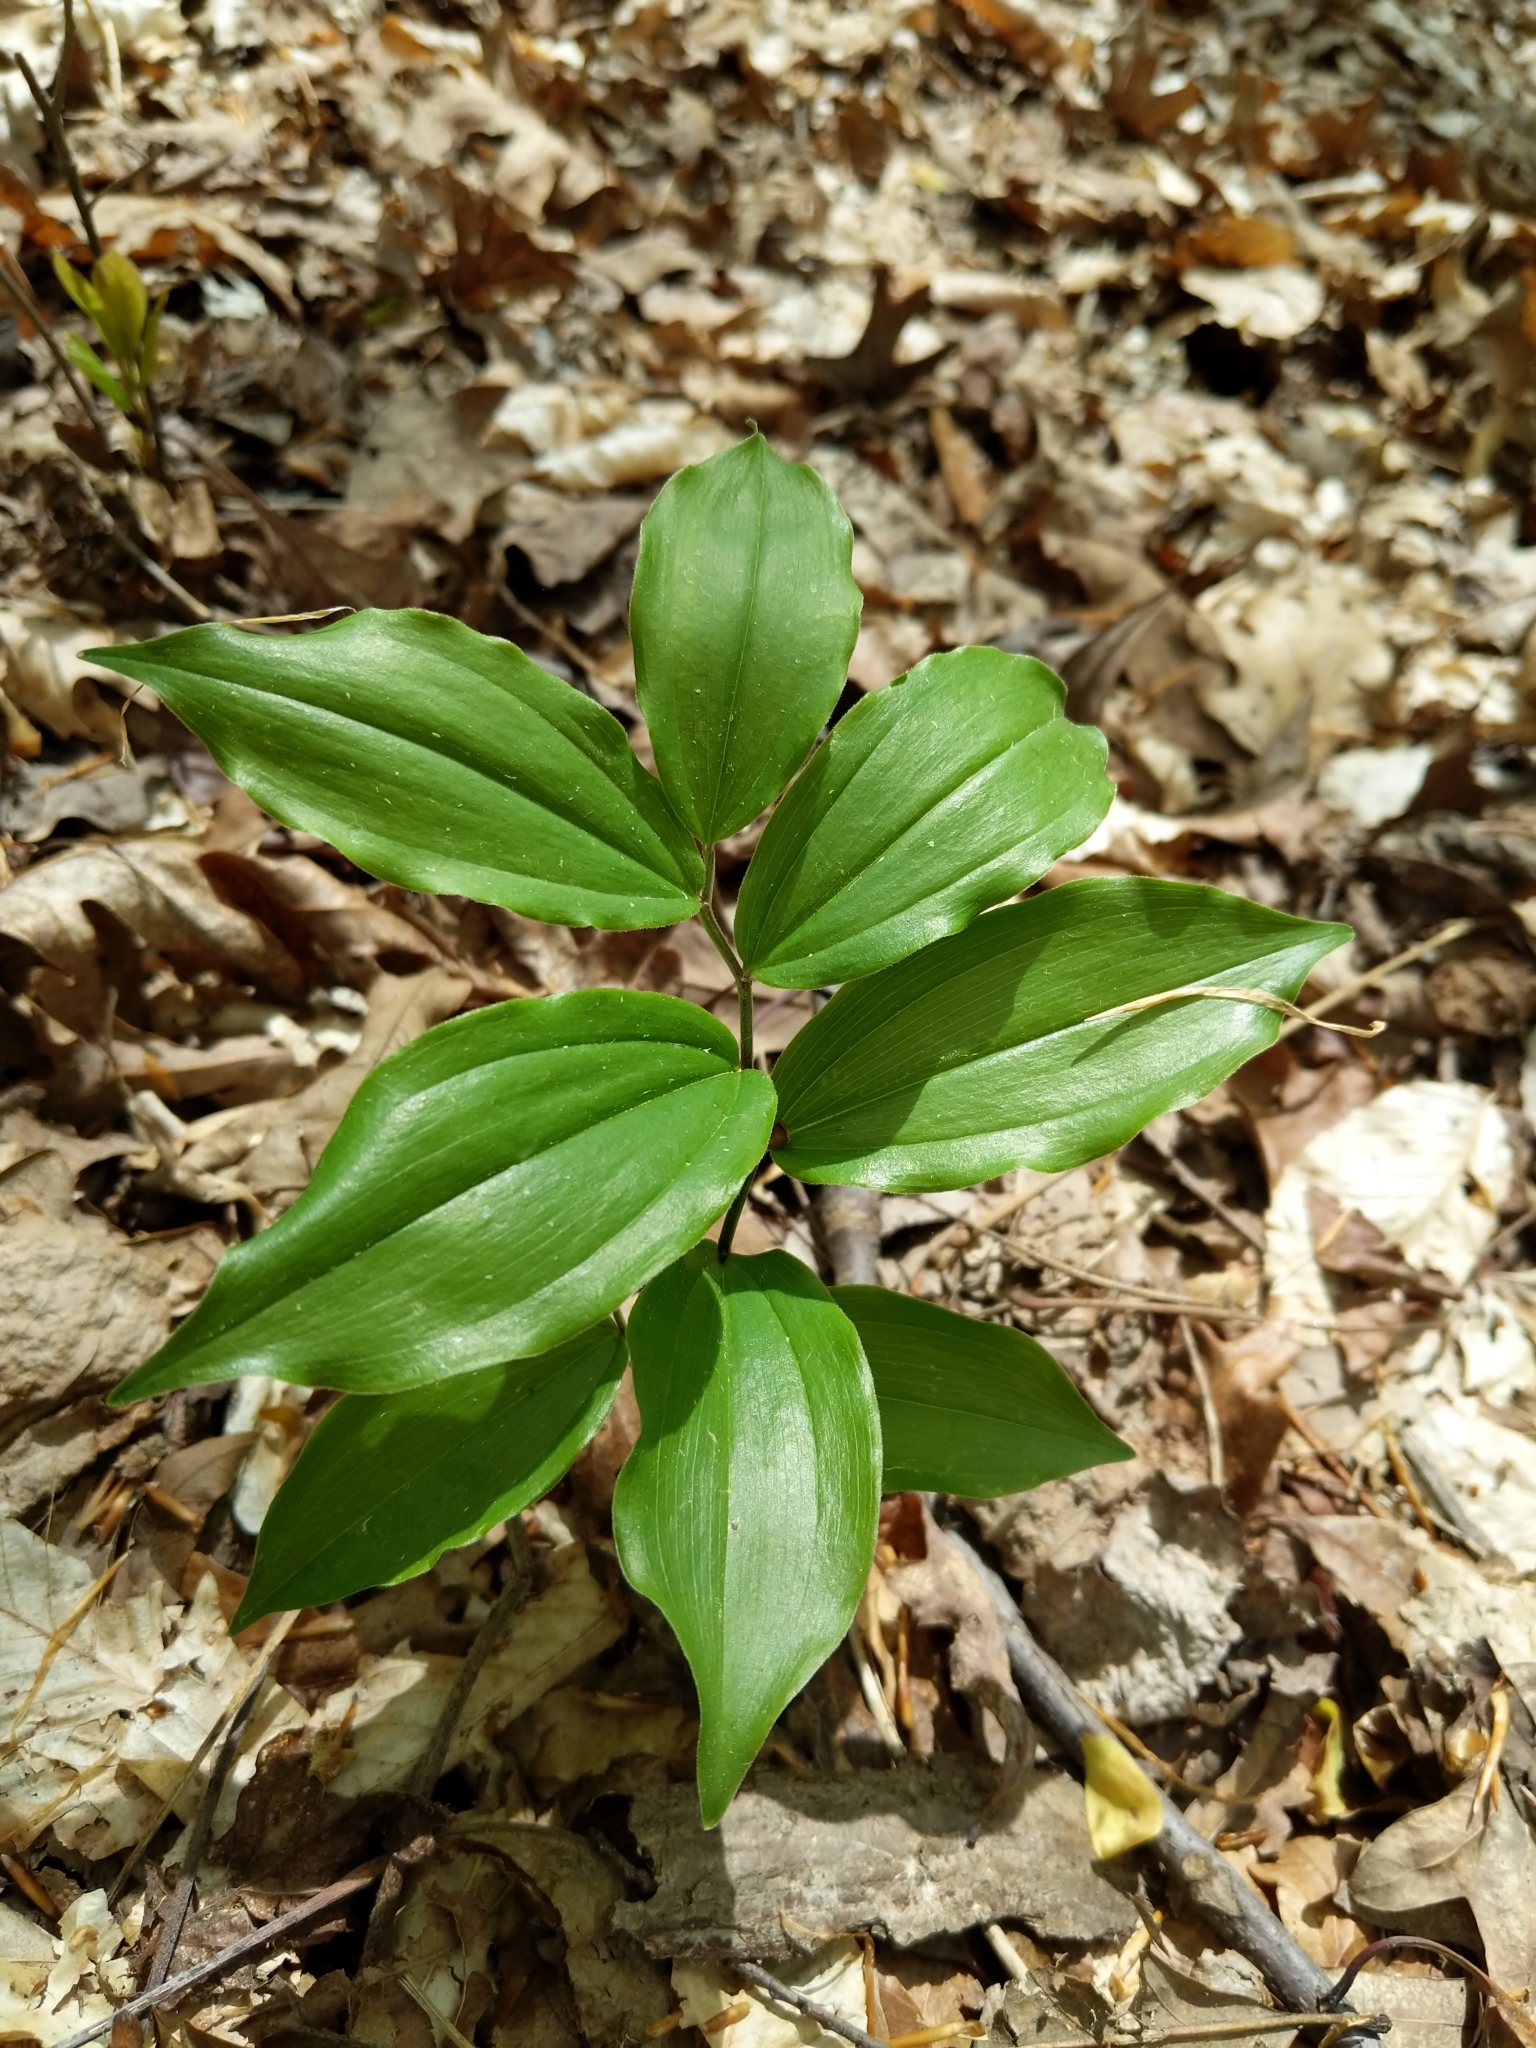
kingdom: Plantae
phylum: Tracheophyta
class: Liliopsida
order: Asparagales
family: Asparagaceae
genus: Maianthemum
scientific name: Maianthemum racemosum
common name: False spikenard
